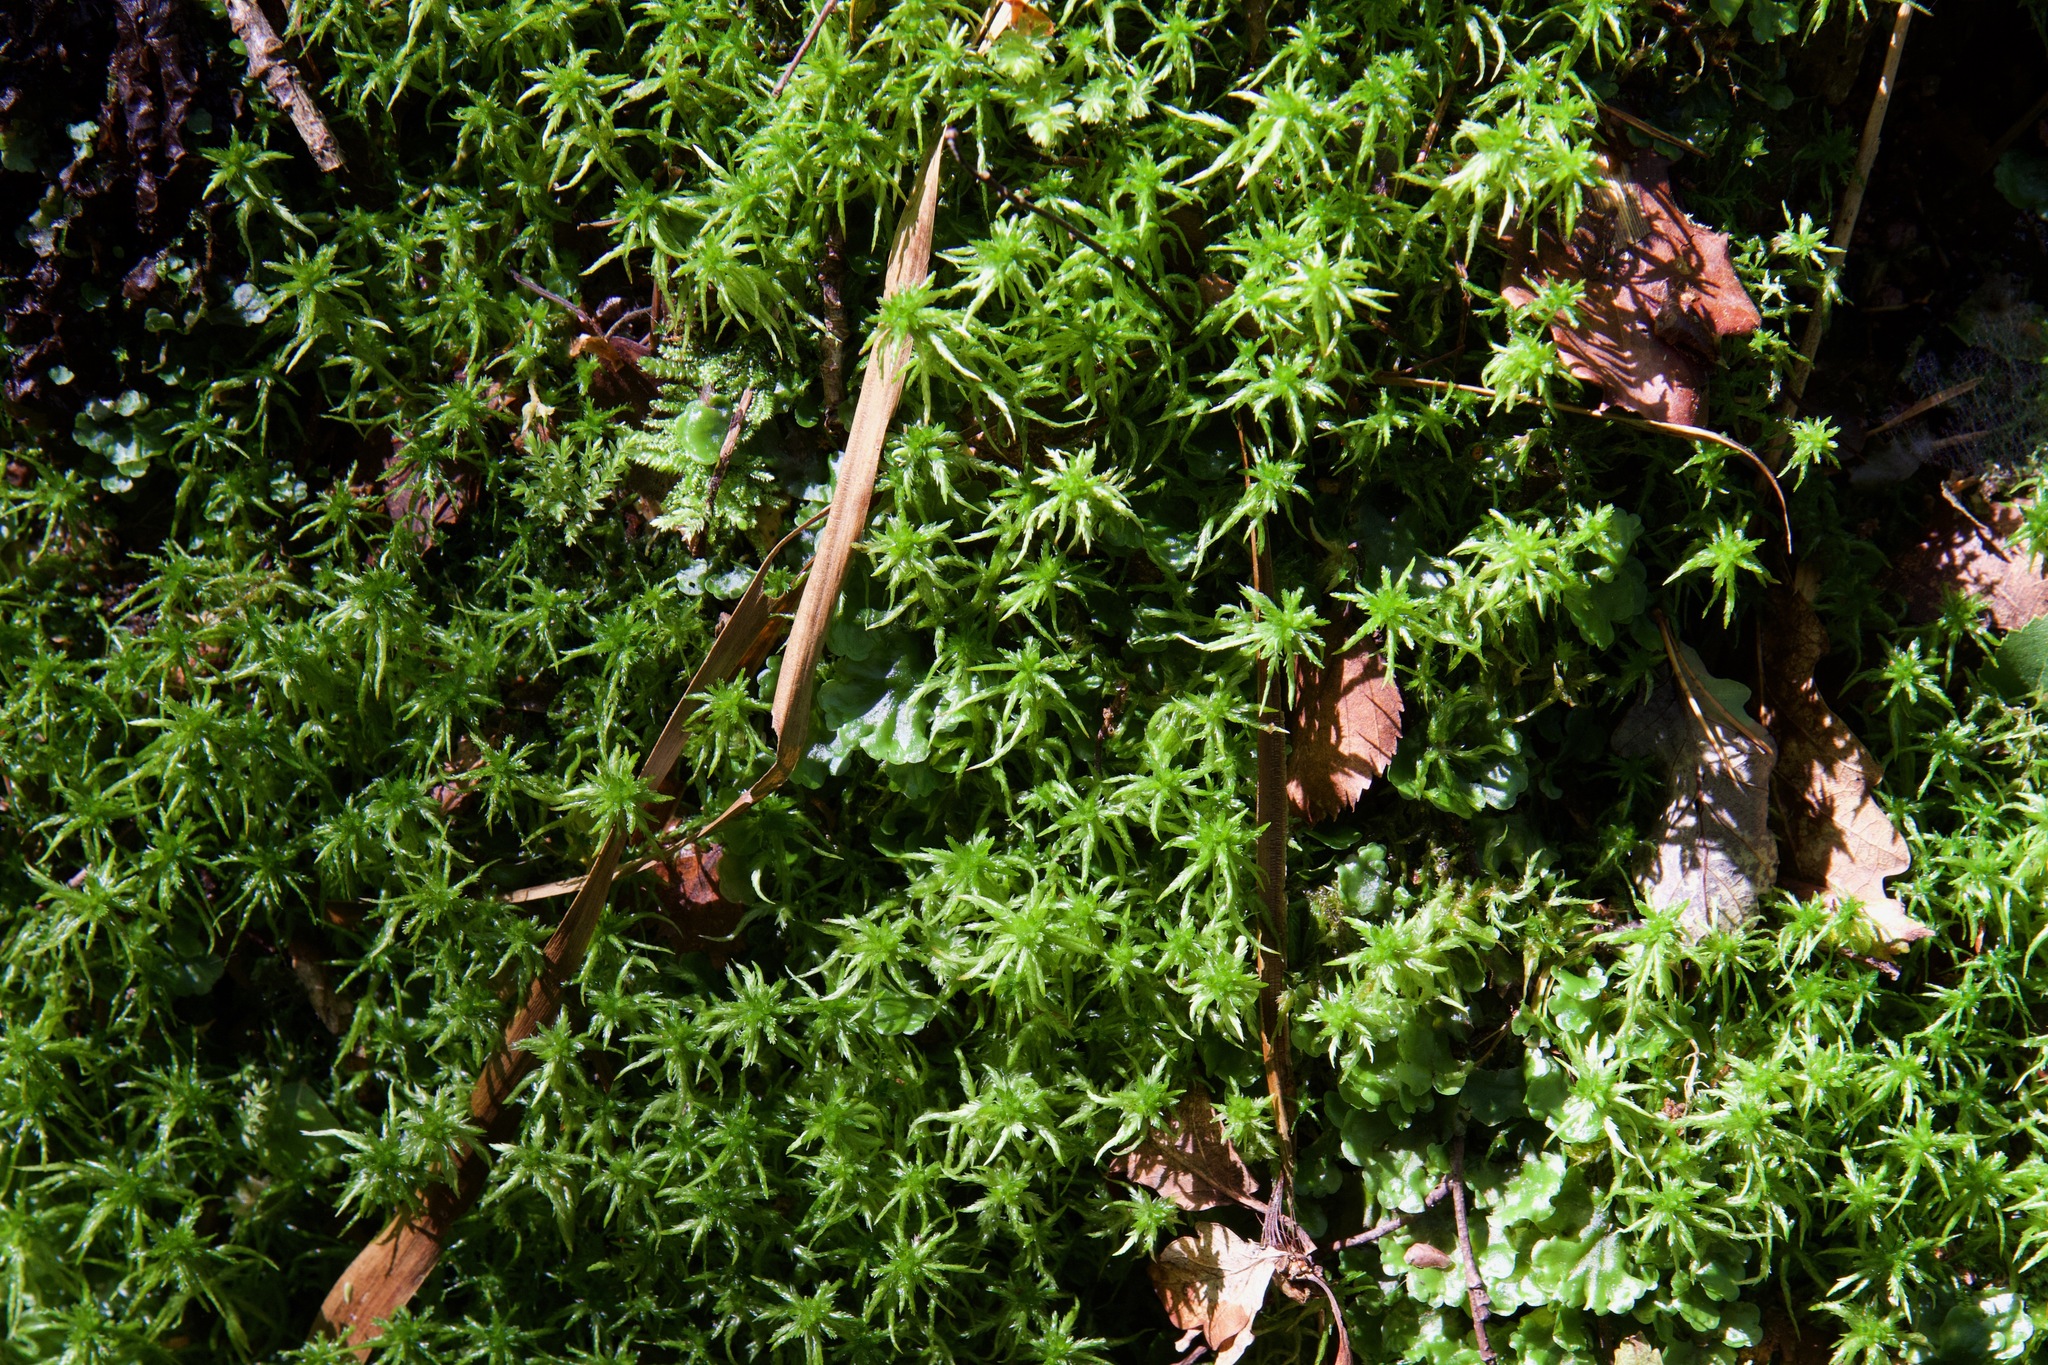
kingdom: Plantae
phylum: Bryophyta
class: Sphagnopsida
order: Sphagnales
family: Sphagnaceae
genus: Sphagnum
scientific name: Sphagnum fimbriatum
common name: Fringed peat moss
